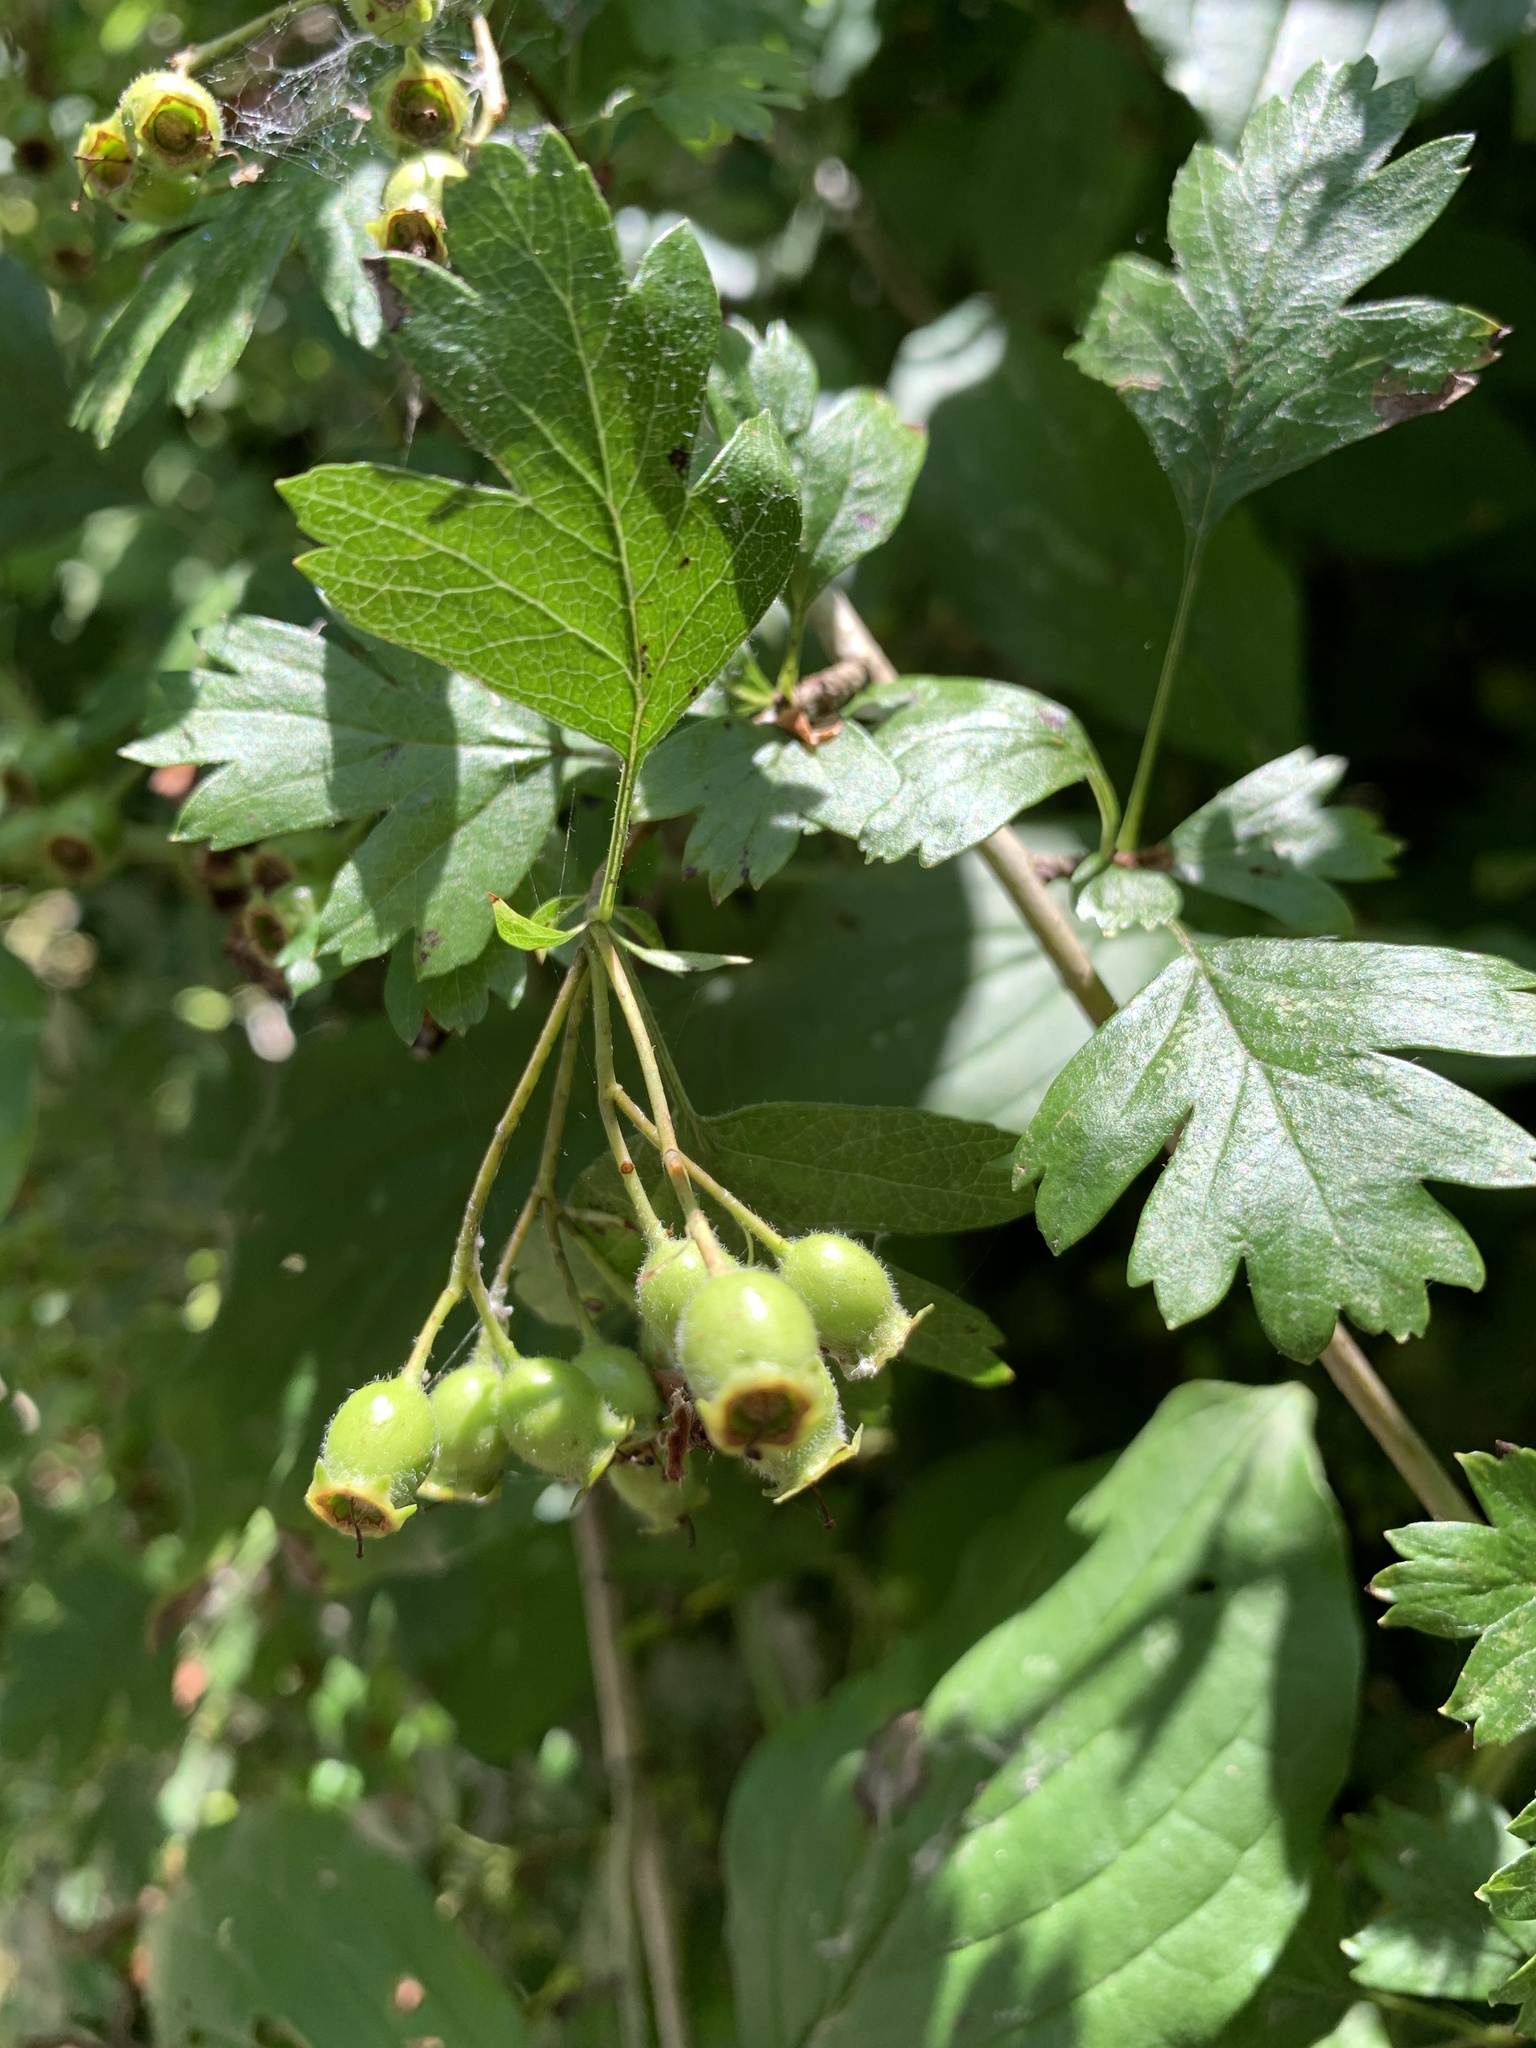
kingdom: Plantae
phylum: Tracheophyta
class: Magnoliopsida
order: Rosales
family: Rosaceae
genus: Crataegus
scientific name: Crataegus monogyna
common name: Hawthorn
